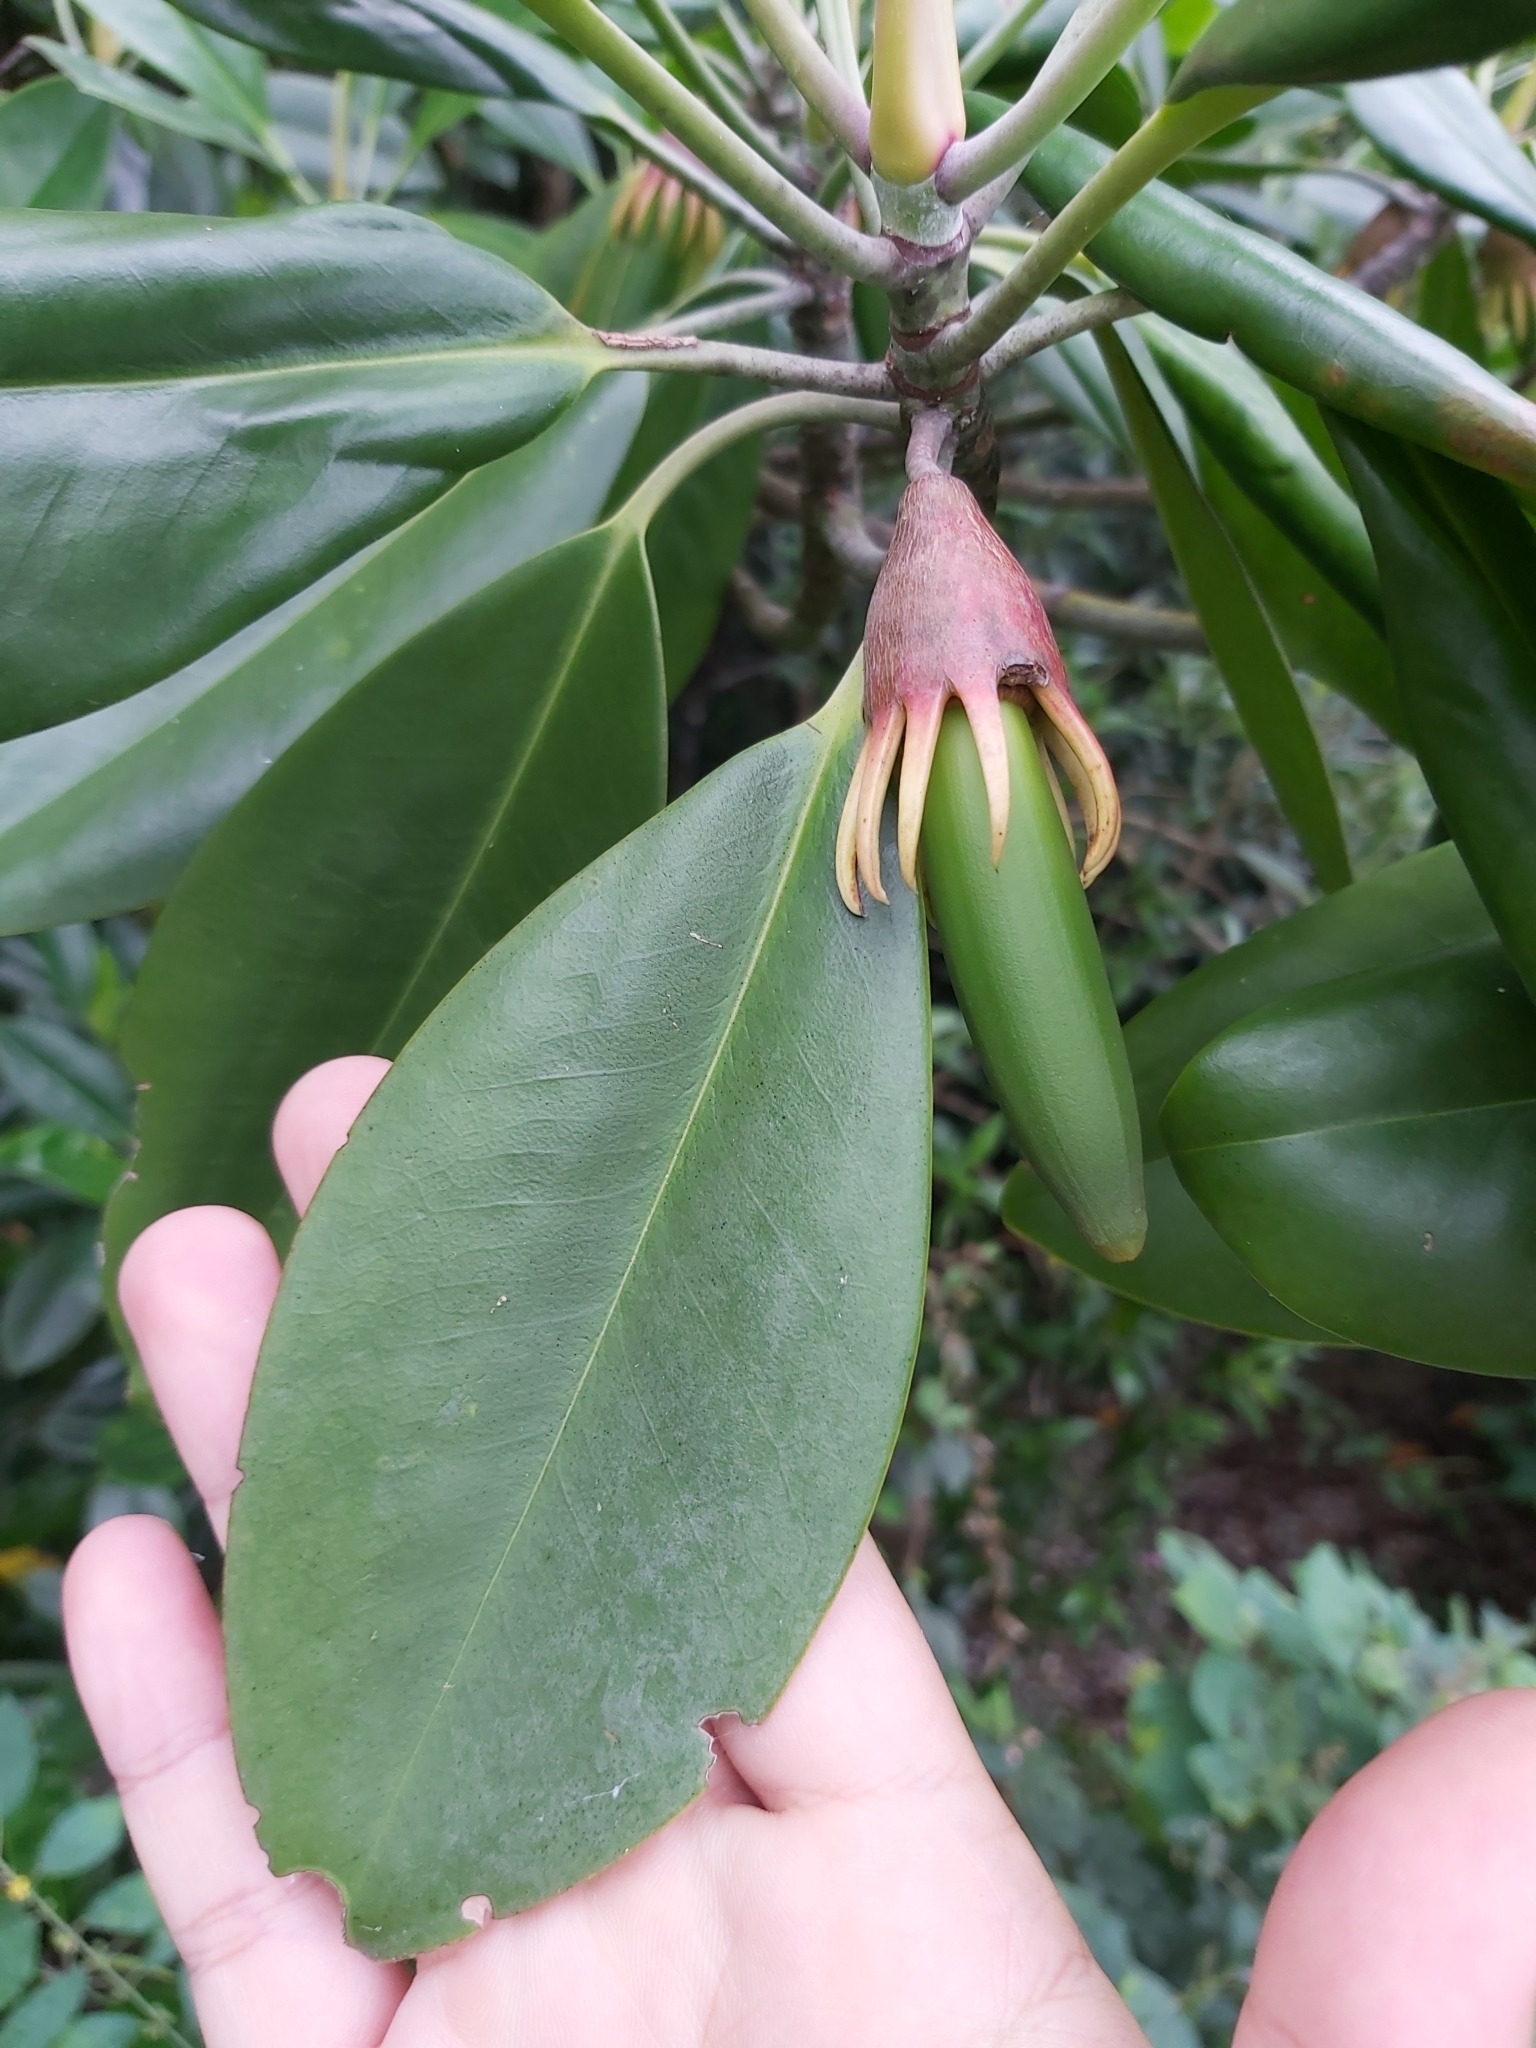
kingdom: Plantae
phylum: Tracheophyta
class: Magnoliopsida
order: Malpighiales
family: Rhizophoraceae
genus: Bruguiera
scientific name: Bruguiera gymnorhiza
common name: Oriental mangrove
